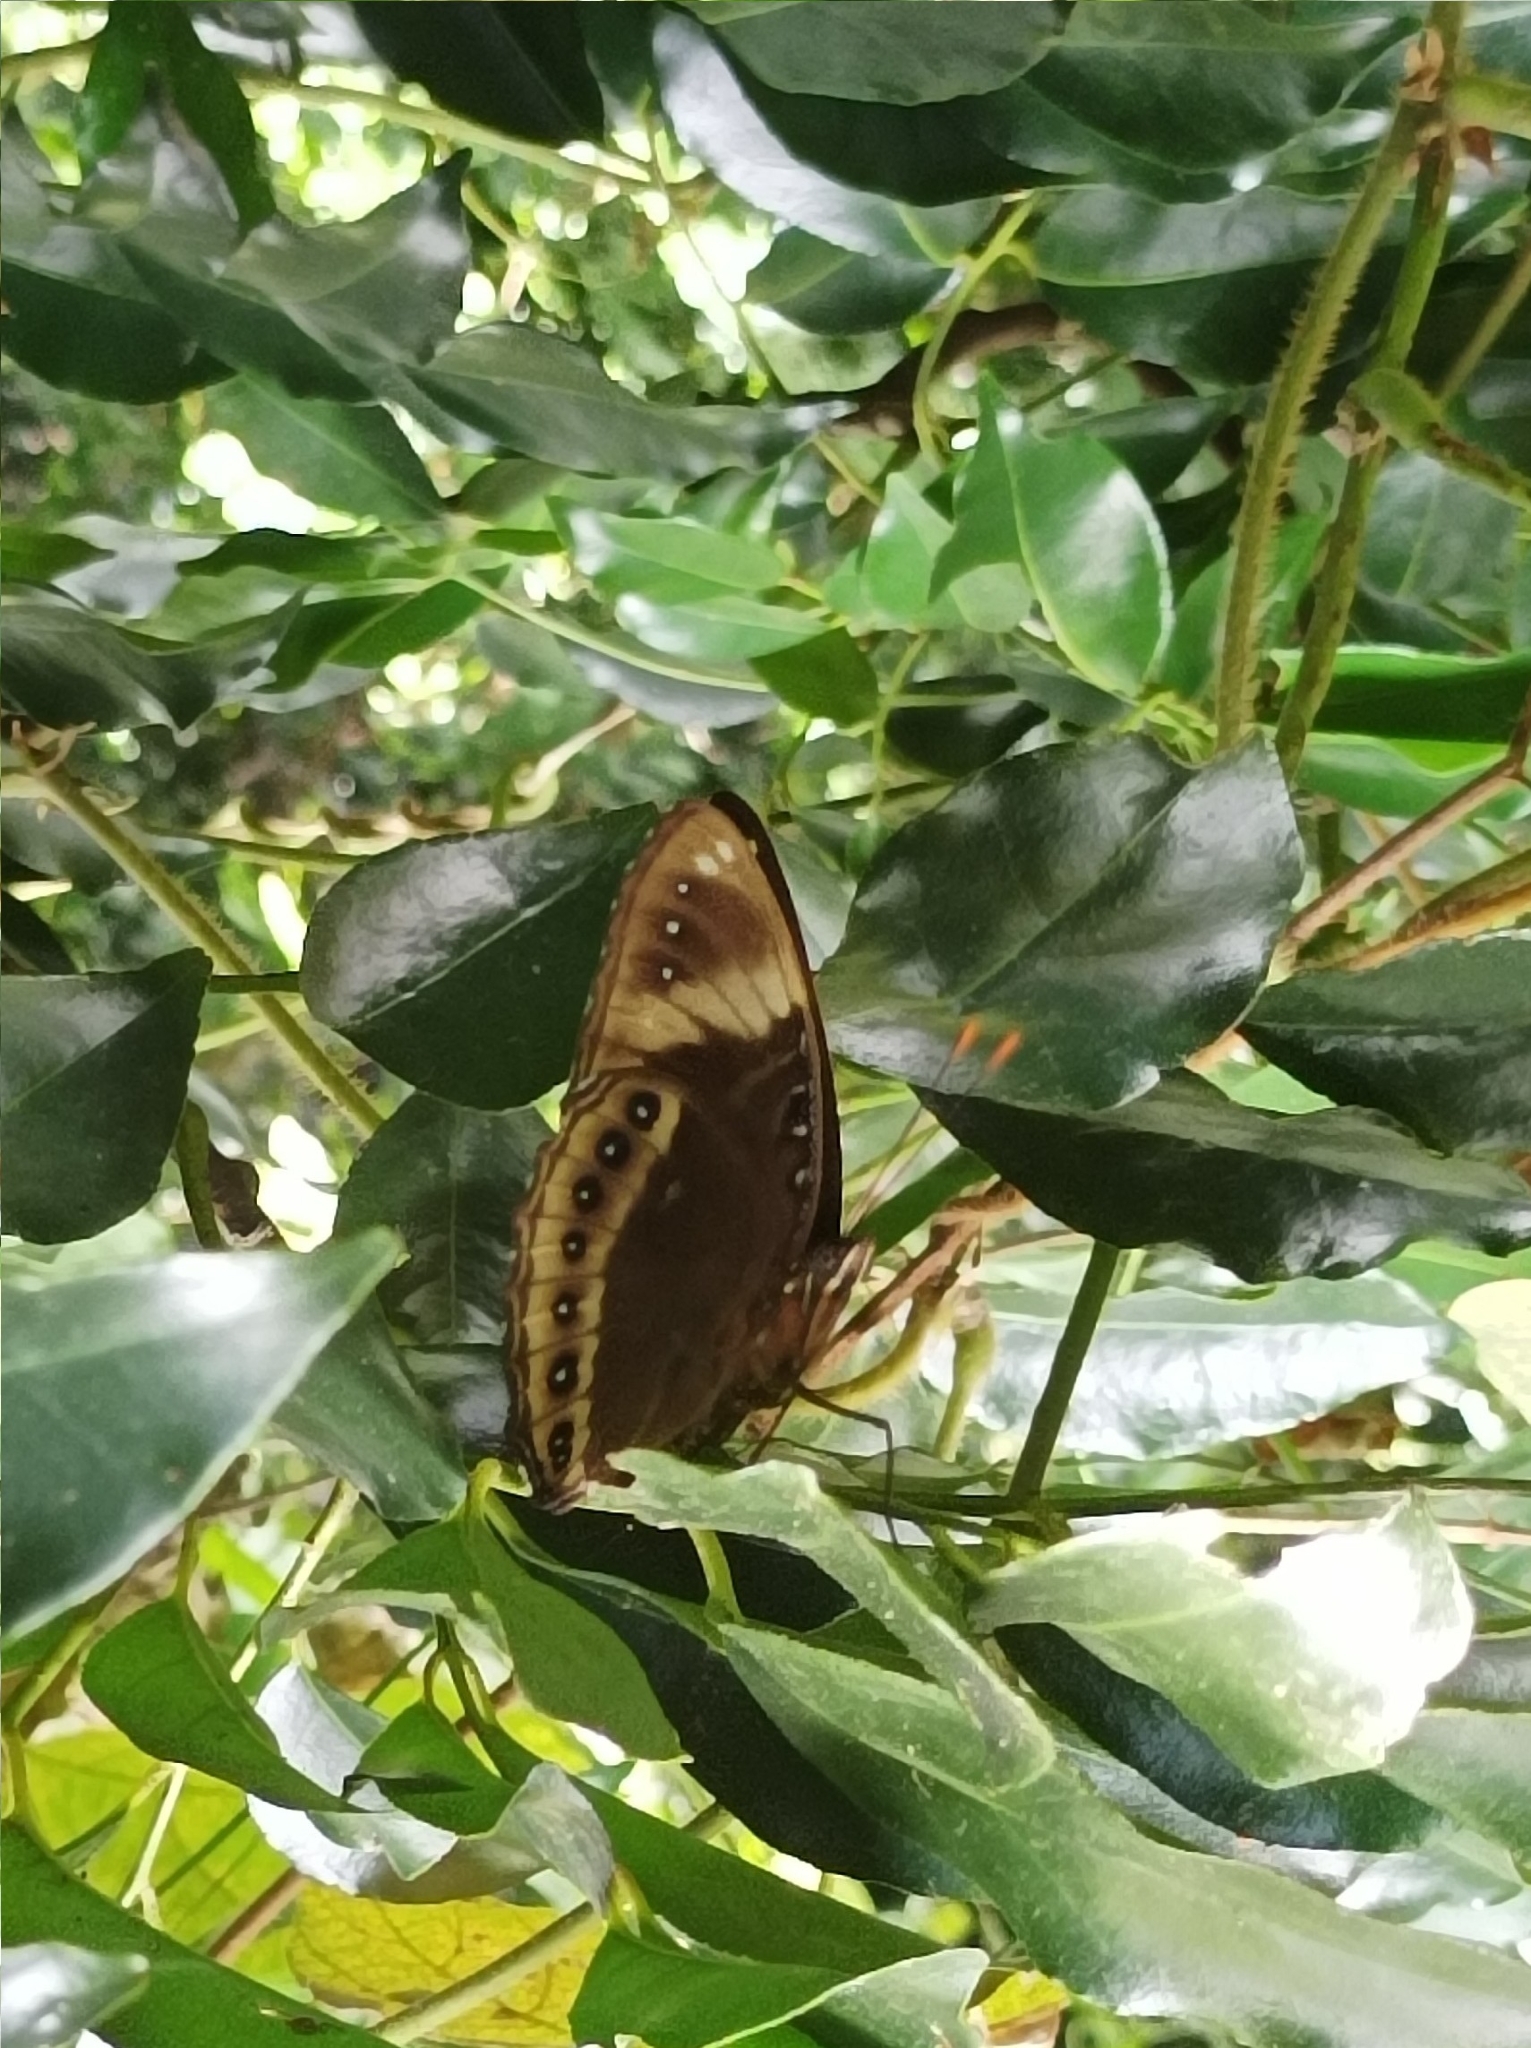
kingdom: Animalia
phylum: Arthropoda
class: Insecta
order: Lepidoptera
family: Nymphalidae
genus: Hypolimnas
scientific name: Hypolimnas octocula
